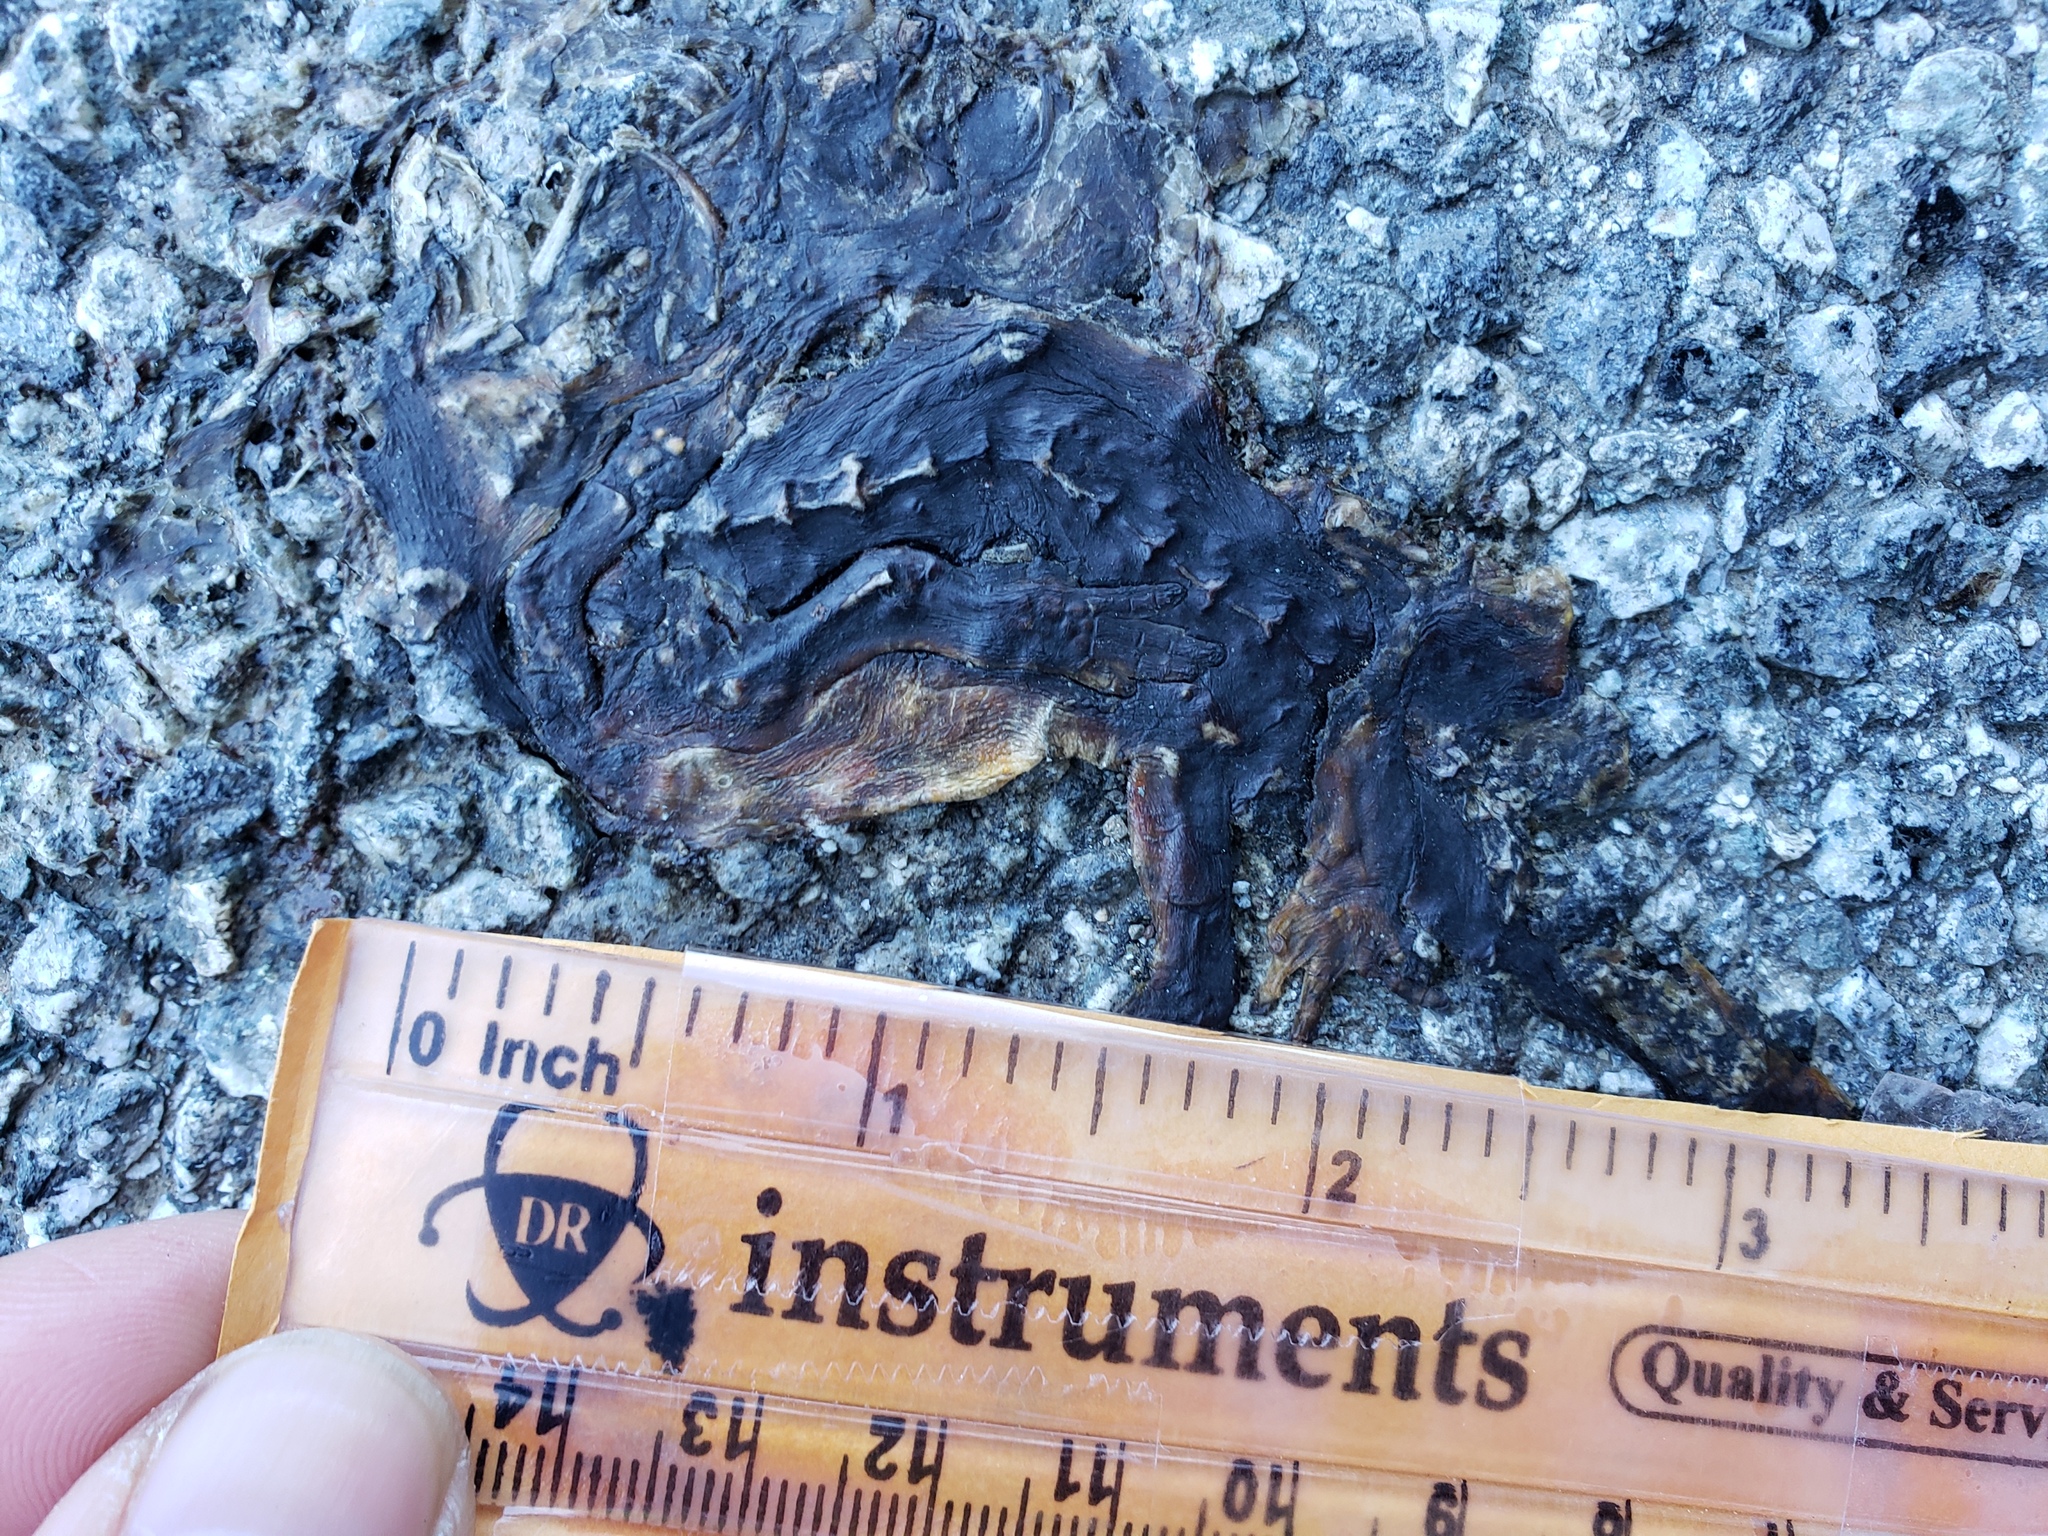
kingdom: Animalia
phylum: Chordata
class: Amphibia
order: Caudata
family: Salamandridae
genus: Taricha
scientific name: Taricha
